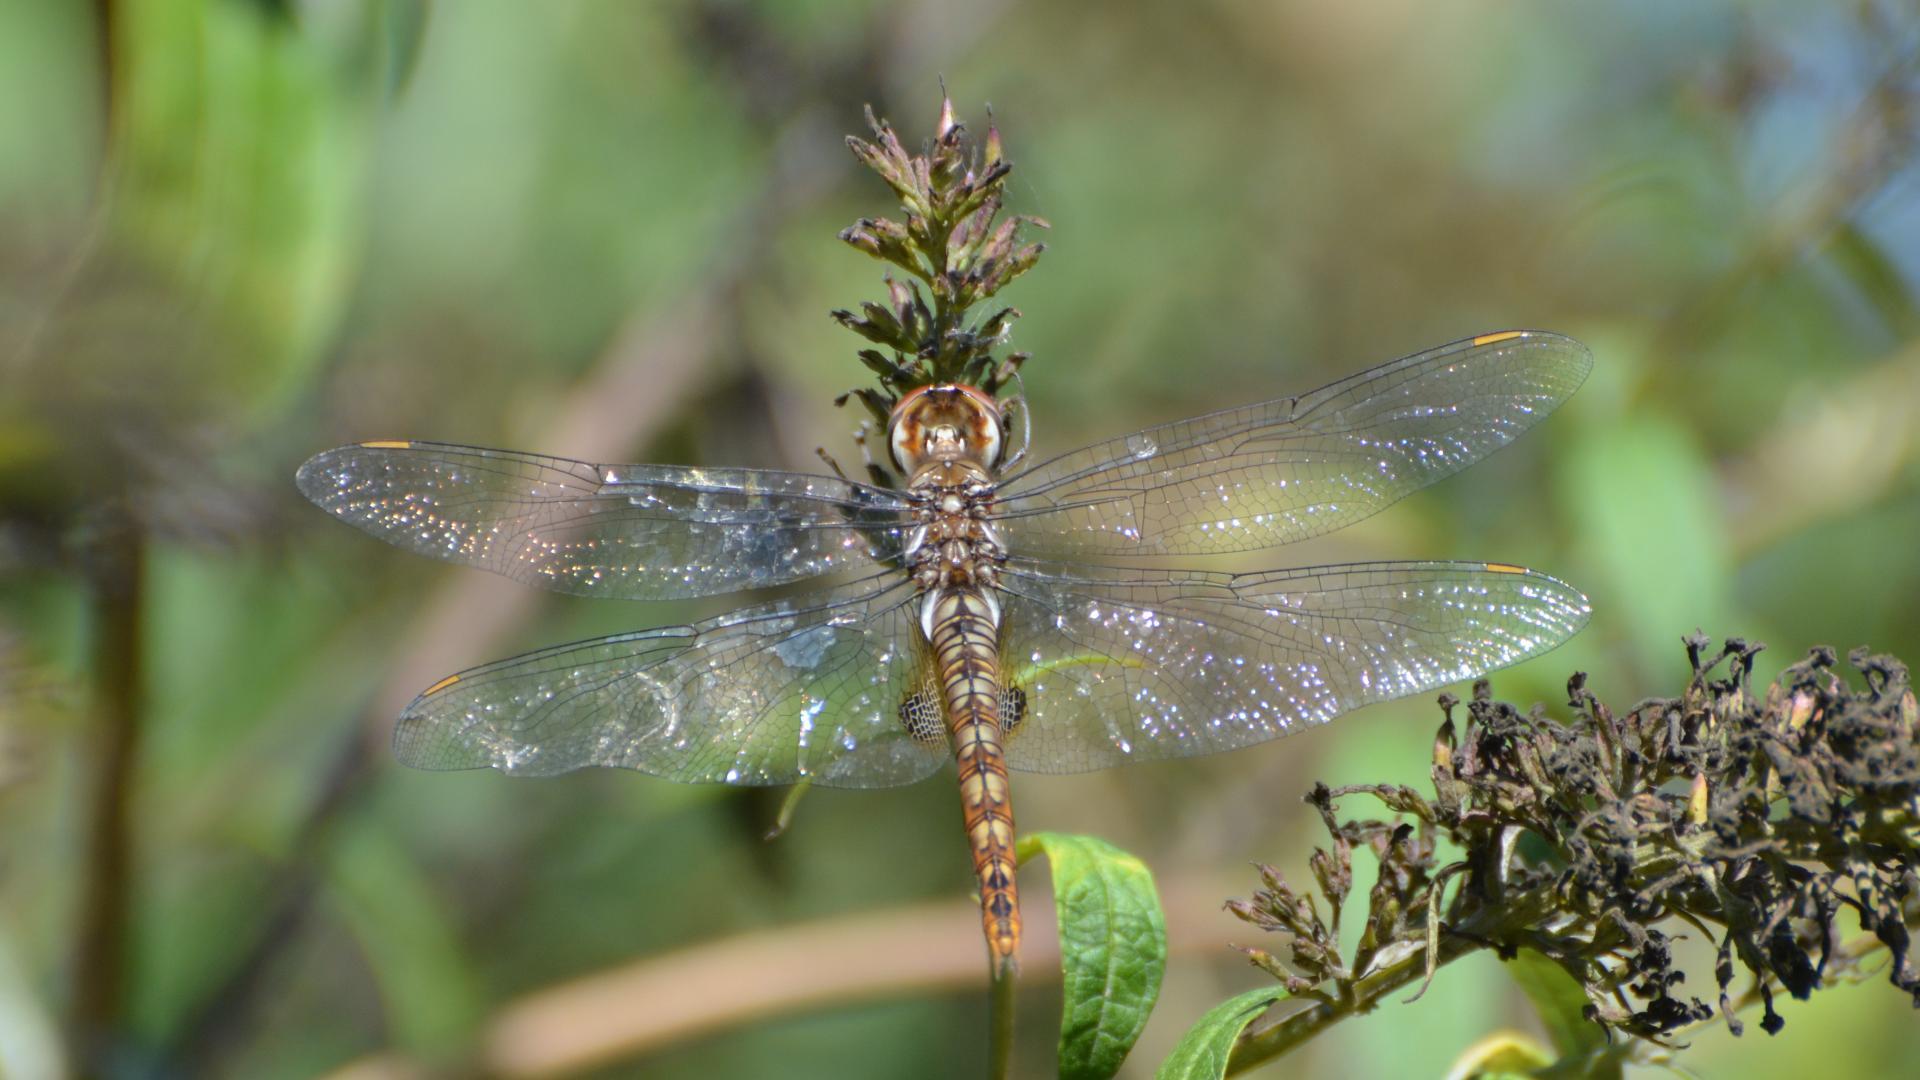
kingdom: Animalia
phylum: Arthropoda
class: Insecta
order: Odonata
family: Libellulidae
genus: Pantala
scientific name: Pantala hymenaea
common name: Spot-winged glider
